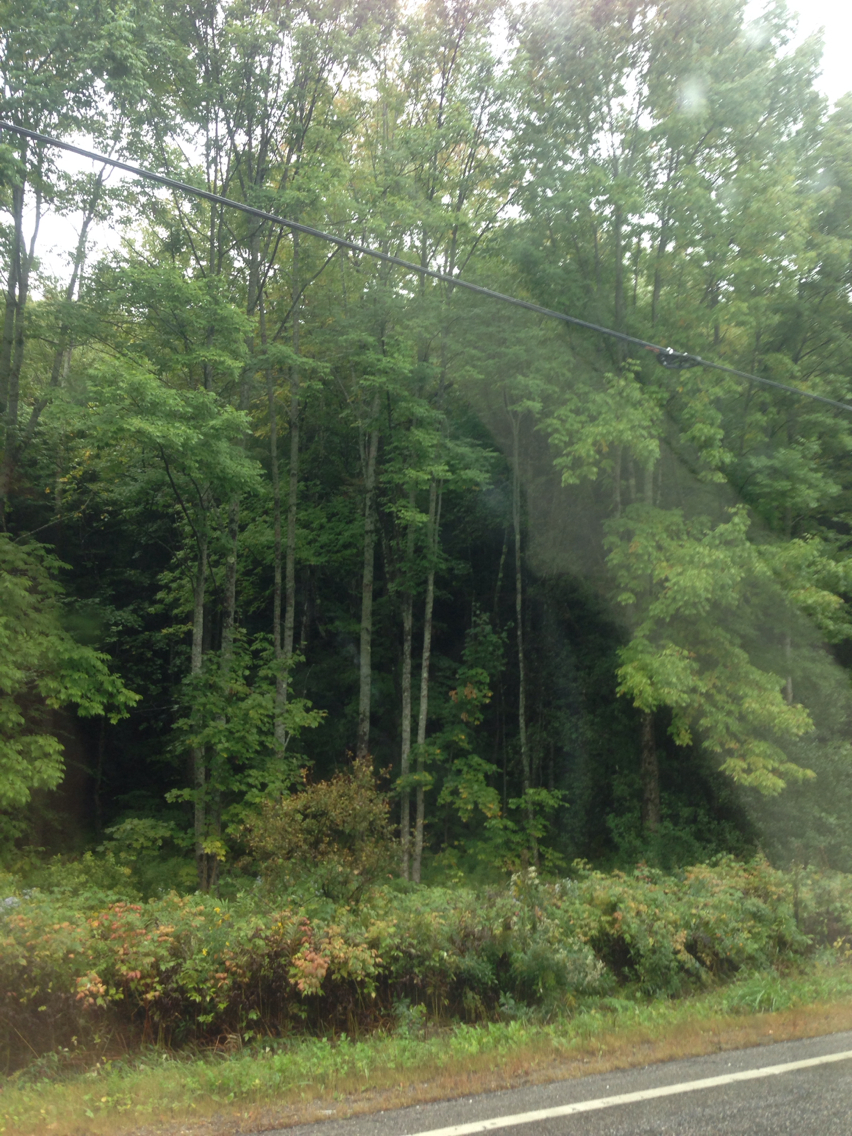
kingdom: Plantae
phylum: Tracheophyta
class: Magnoliopsida
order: Lamiales
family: Oleaceae
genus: Fraxinus
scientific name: Fraxinus americana
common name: White ash
